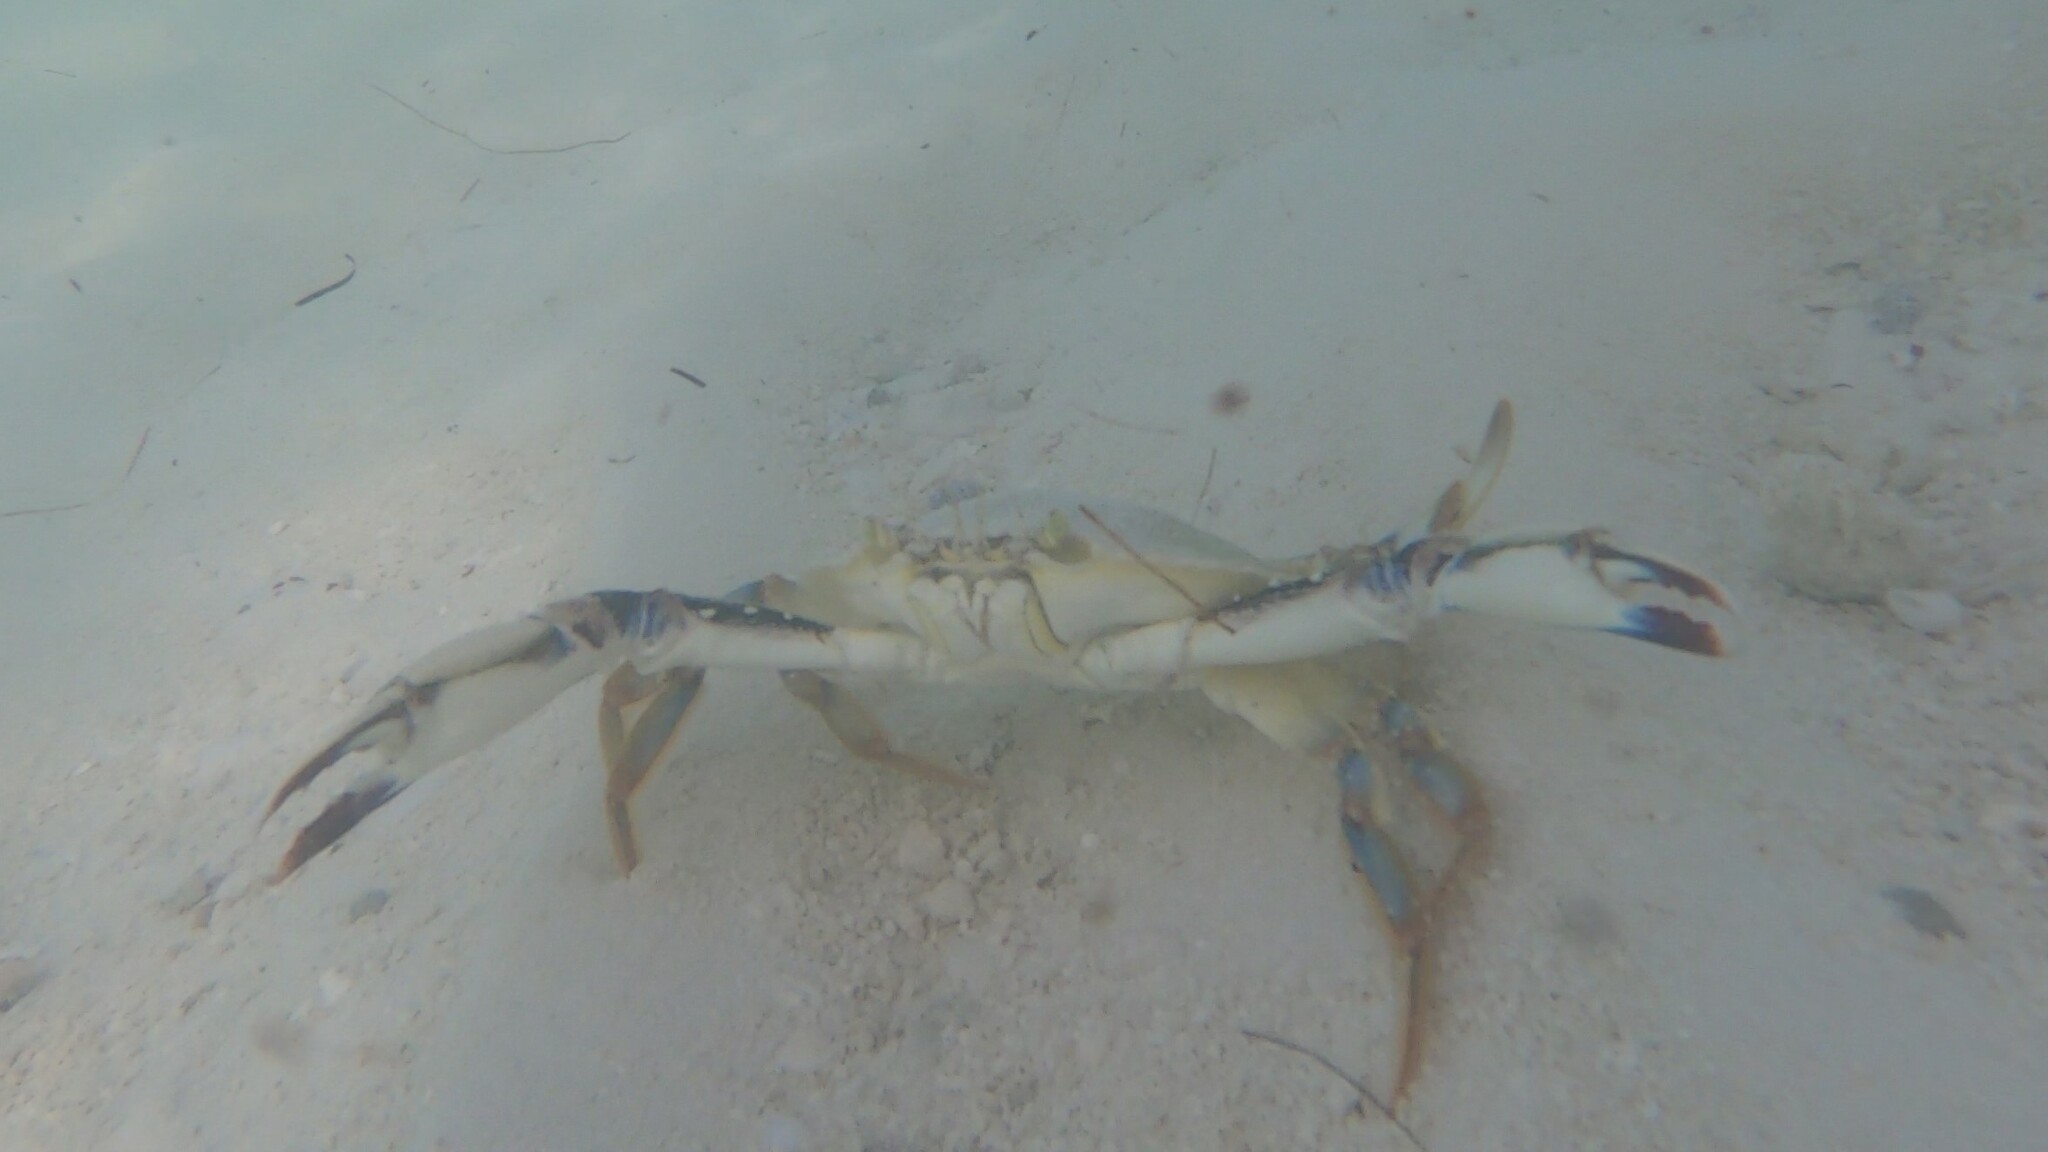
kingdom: Animalia
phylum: Arthropoda
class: Malacostraca
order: Decapoda
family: Portunidae
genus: Callinectes
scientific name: Callinectes ornatus
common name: Ornate crab
